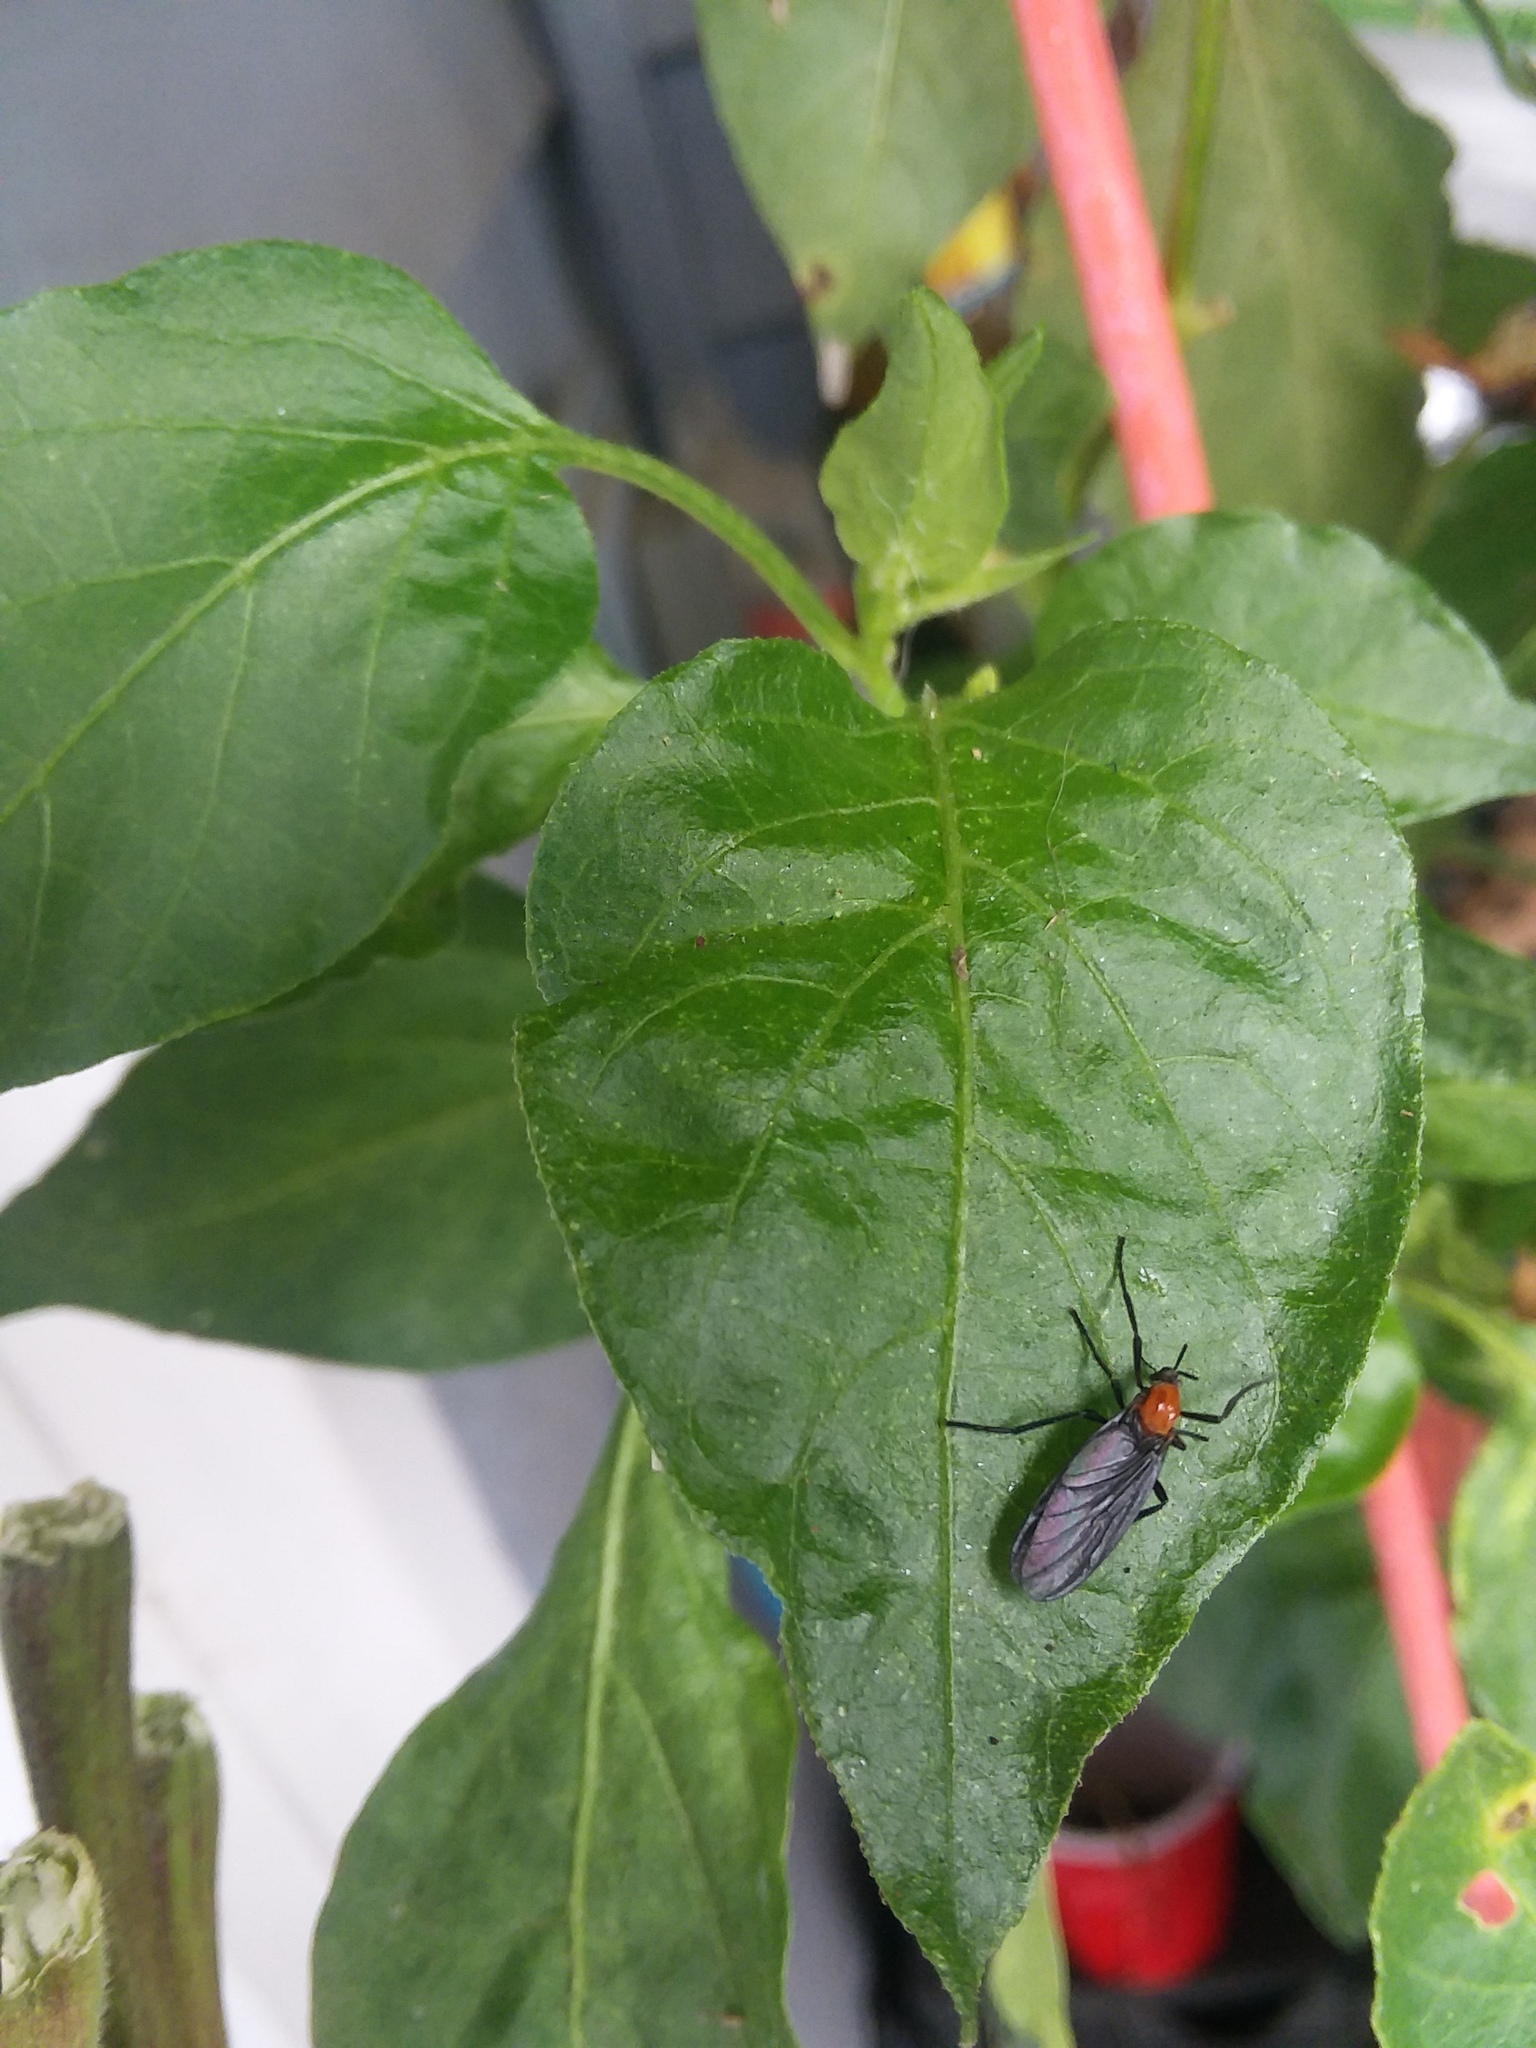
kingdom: Animalia
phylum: Arthropoda
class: Insecta
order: Diptera
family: Bibionidae
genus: Plecia
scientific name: Plecia nearctica
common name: March fly
